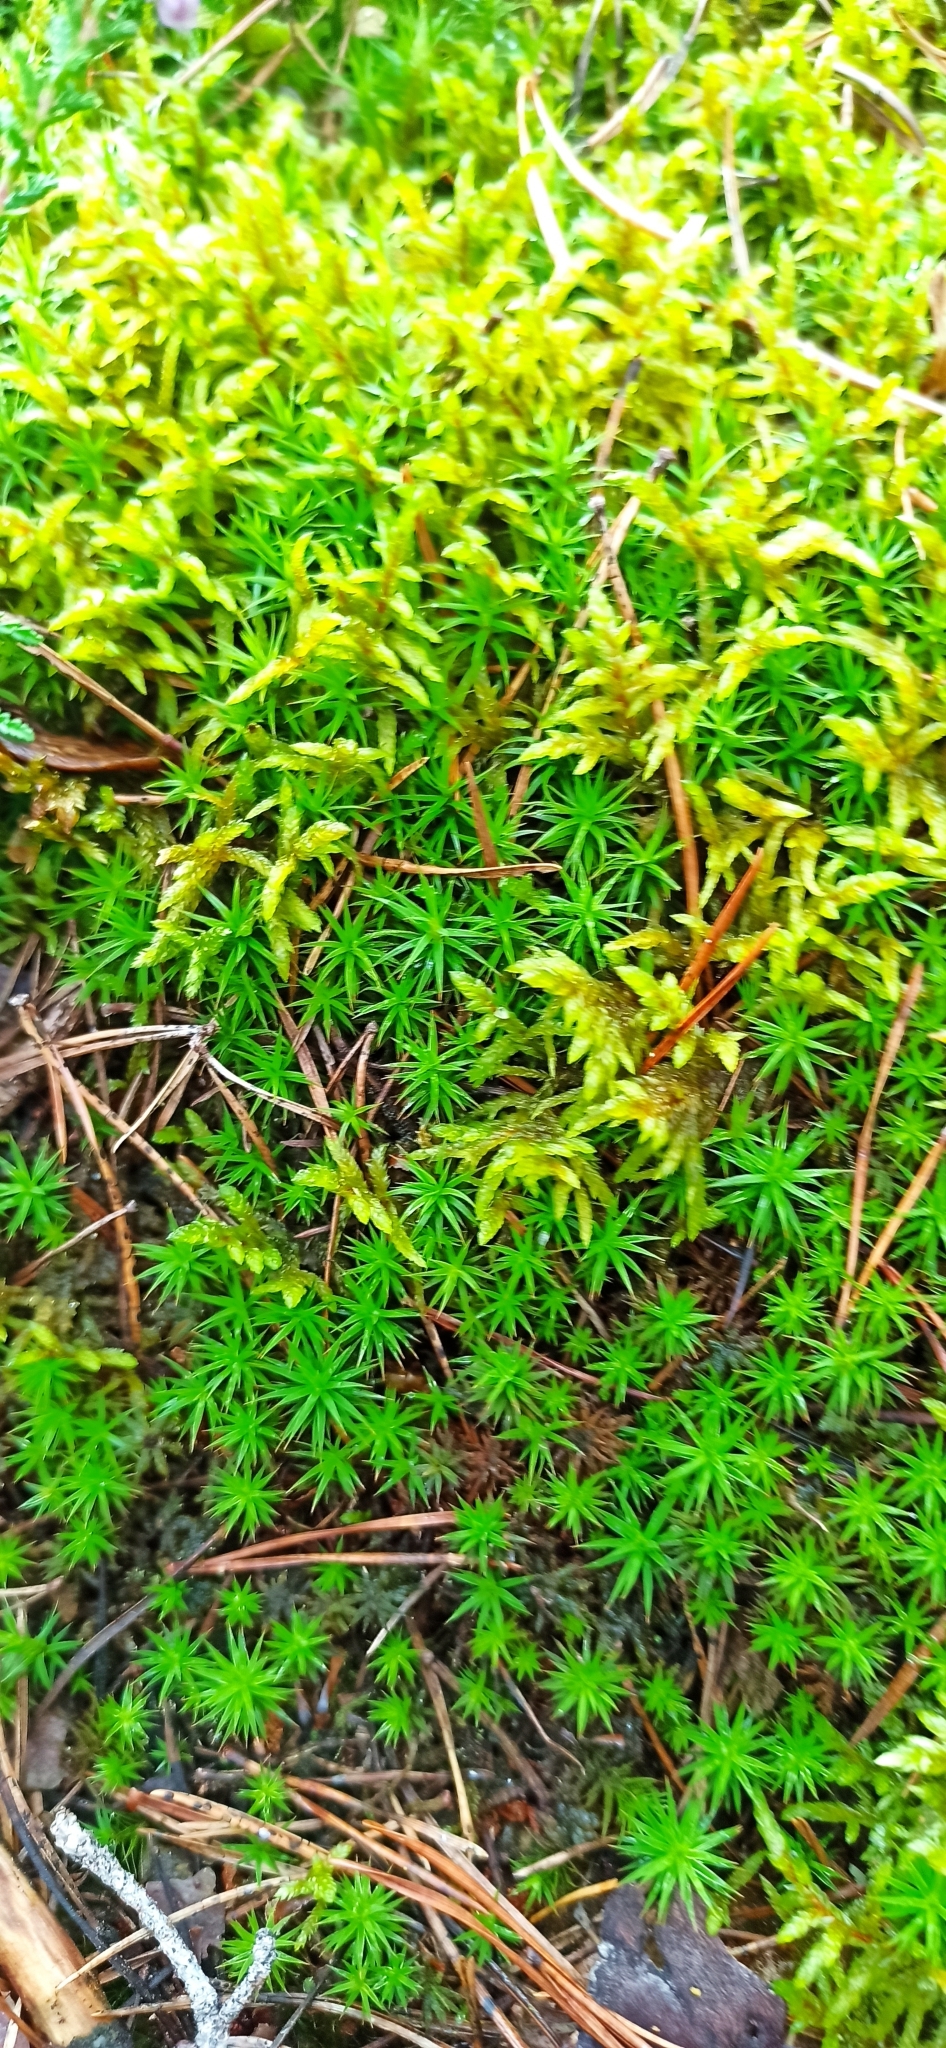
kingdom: Plantae
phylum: Bryophyta
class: Polytrichopsida
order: Polytrichales
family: Polytrichaceae
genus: Polytrichum
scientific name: Polytrichum formosum
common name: Bank haircap moss
